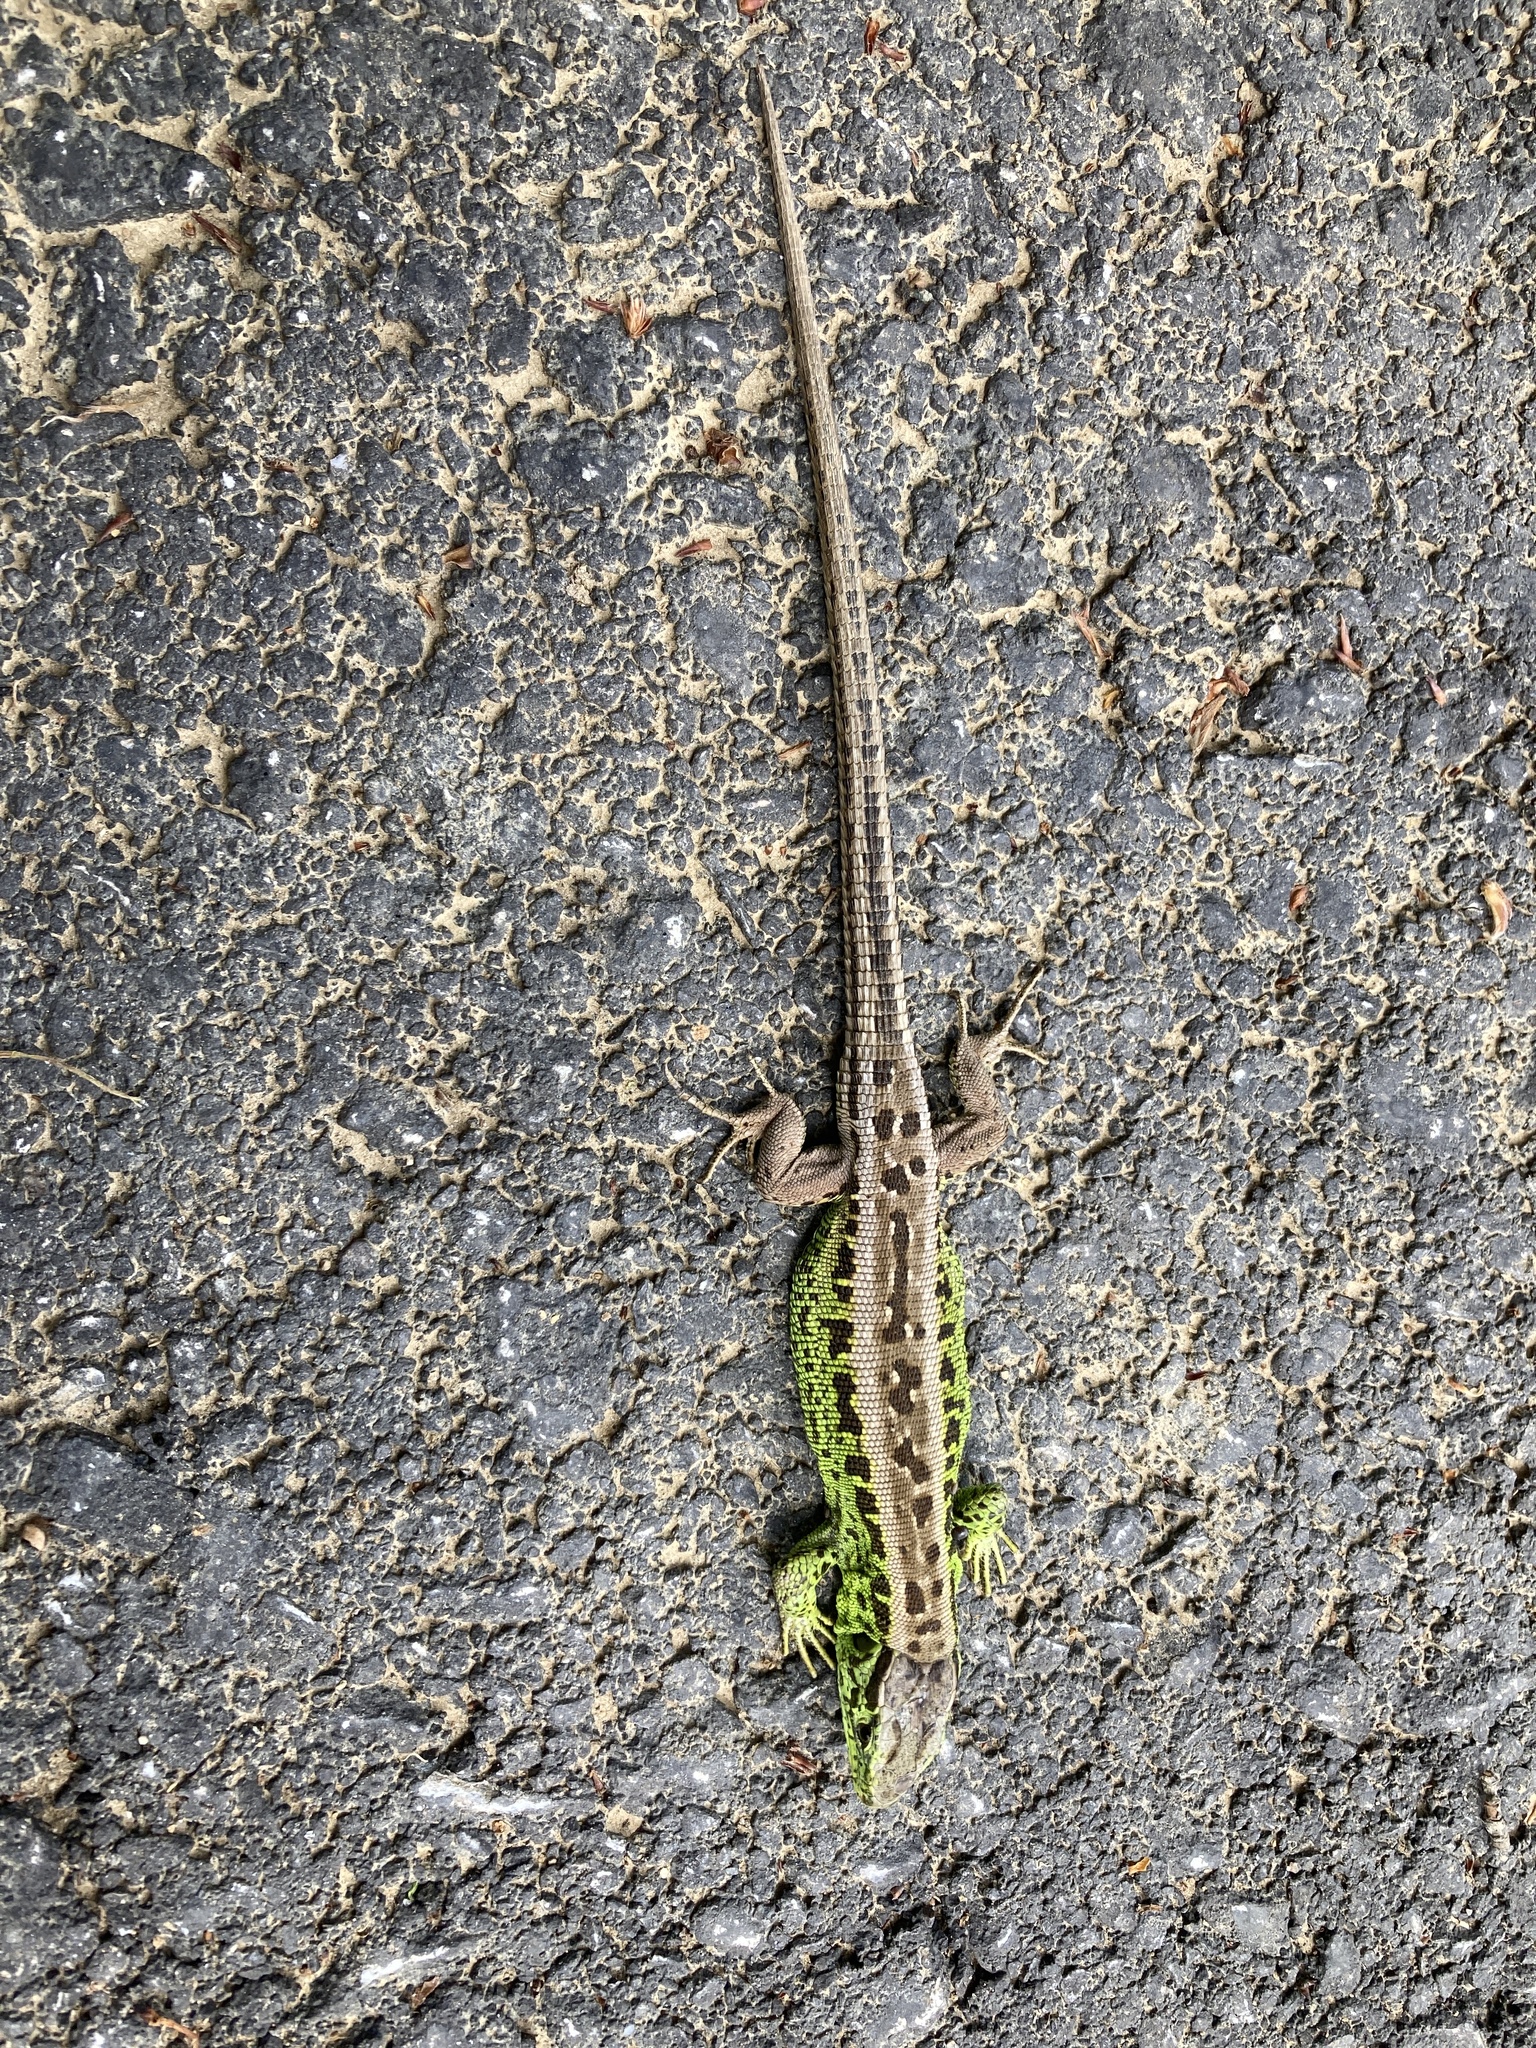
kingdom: Animalia
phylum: Chordata
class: Squamata
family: Lacertidae
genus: Lacerta
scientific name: Lacerta agilis
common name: Sand lizard
